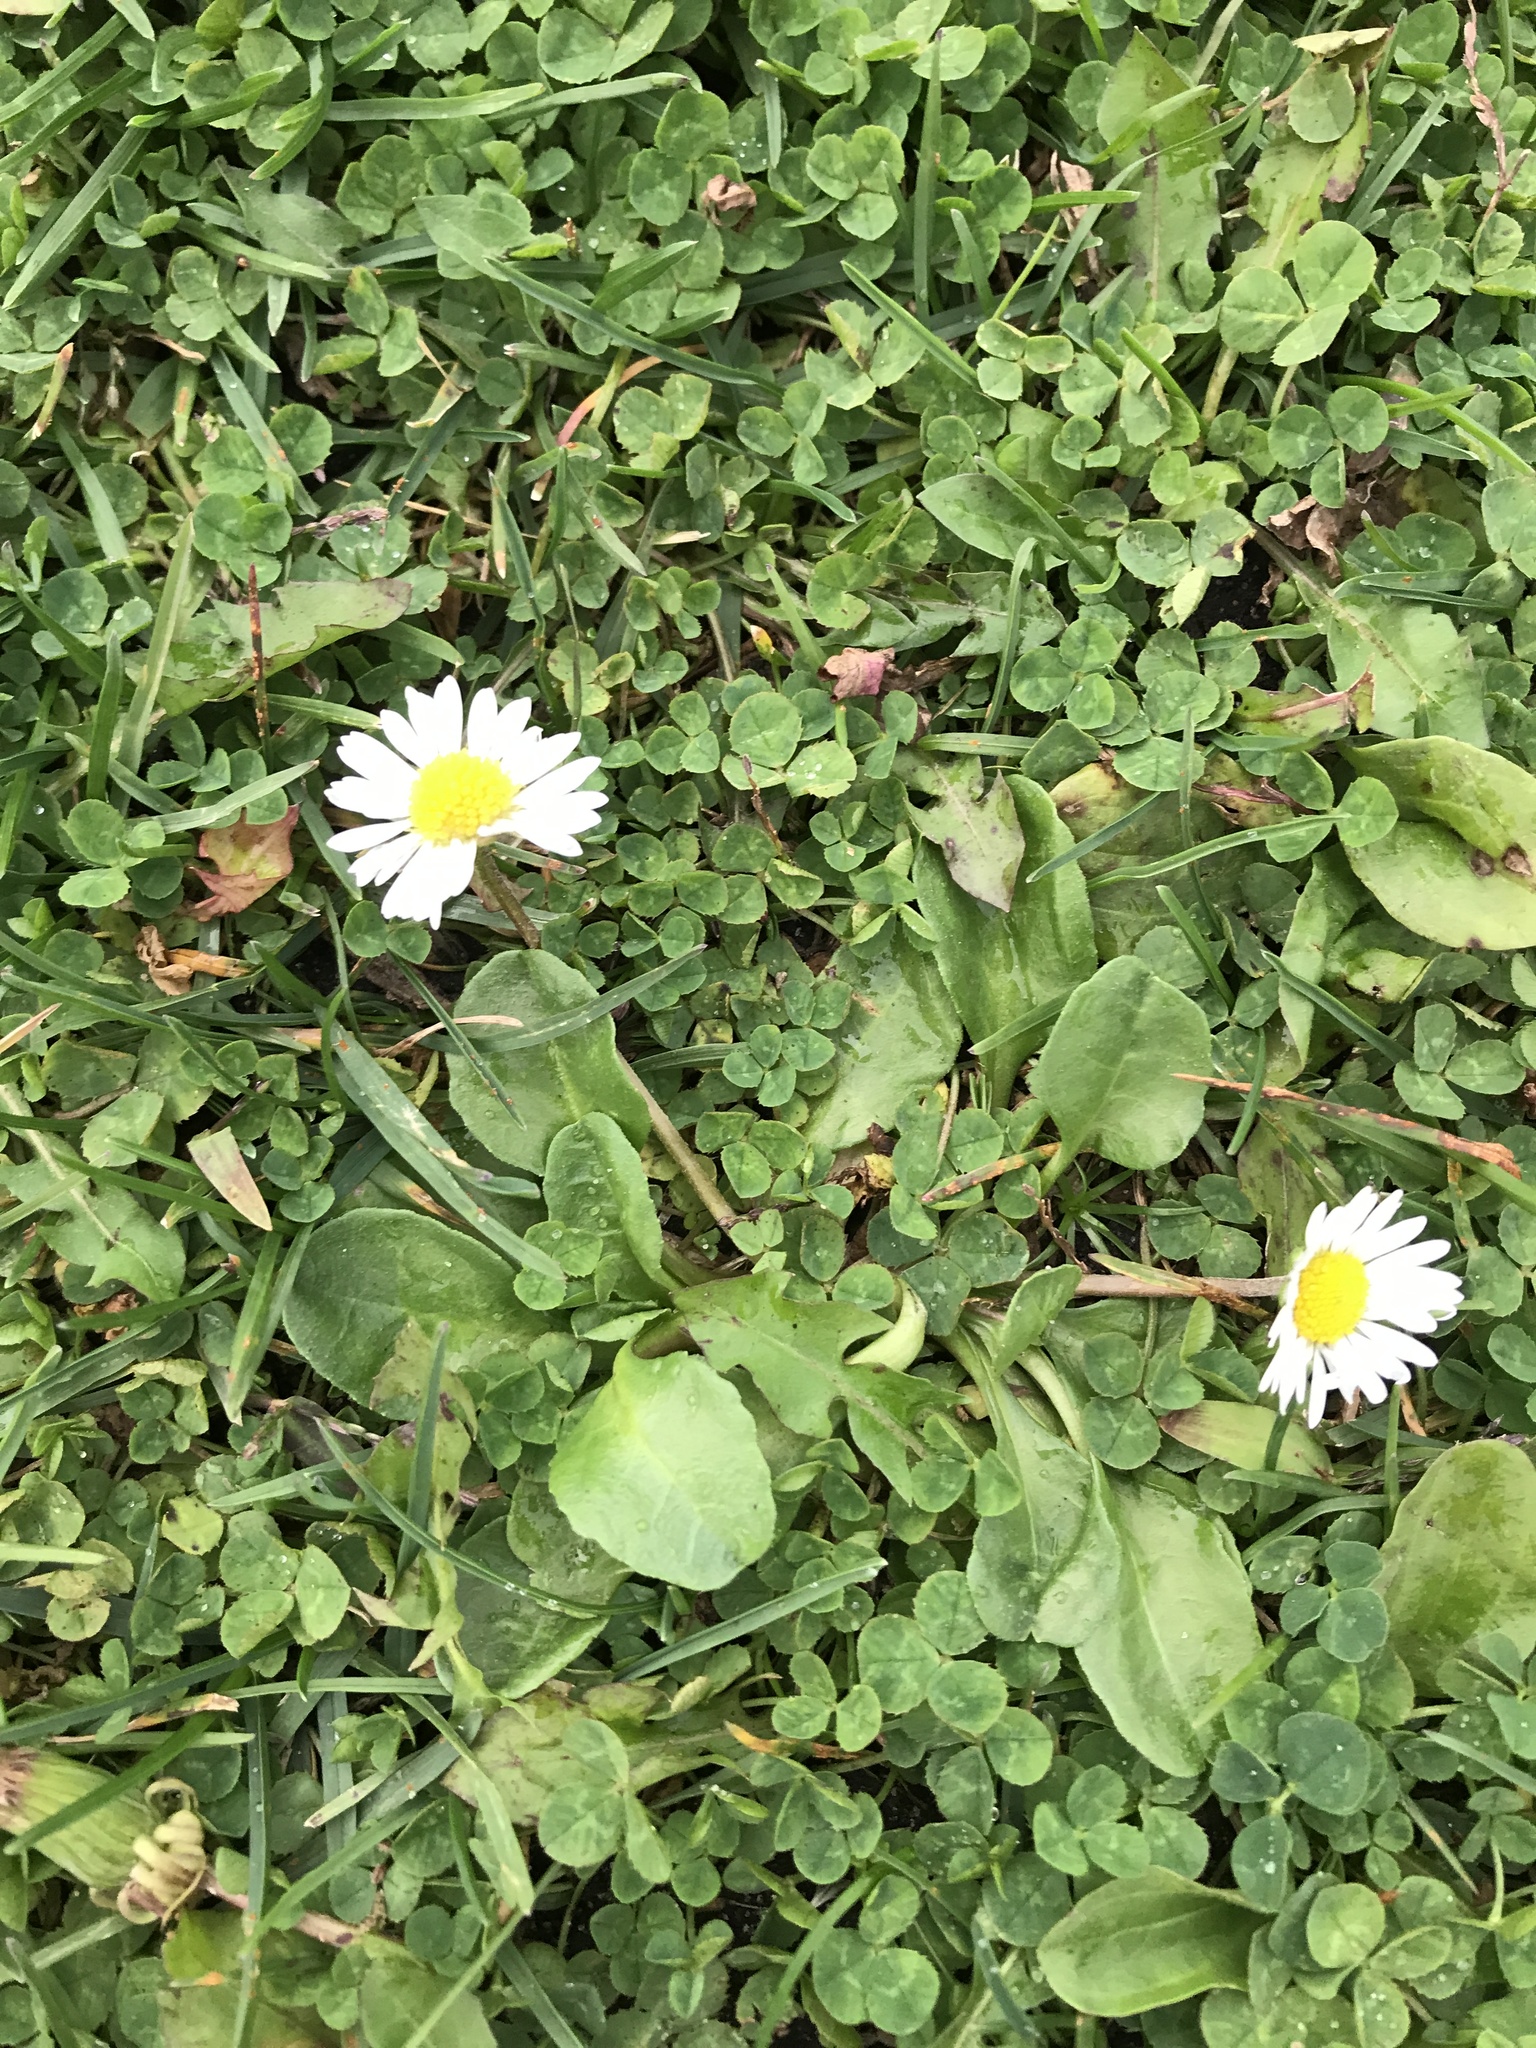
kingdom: Plantae
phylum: Tracheophyta
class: Magnoliopsida
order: Asterales
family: Asteraceae
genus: Bellis
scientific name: Bellis perennis
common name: Lawndaisy
